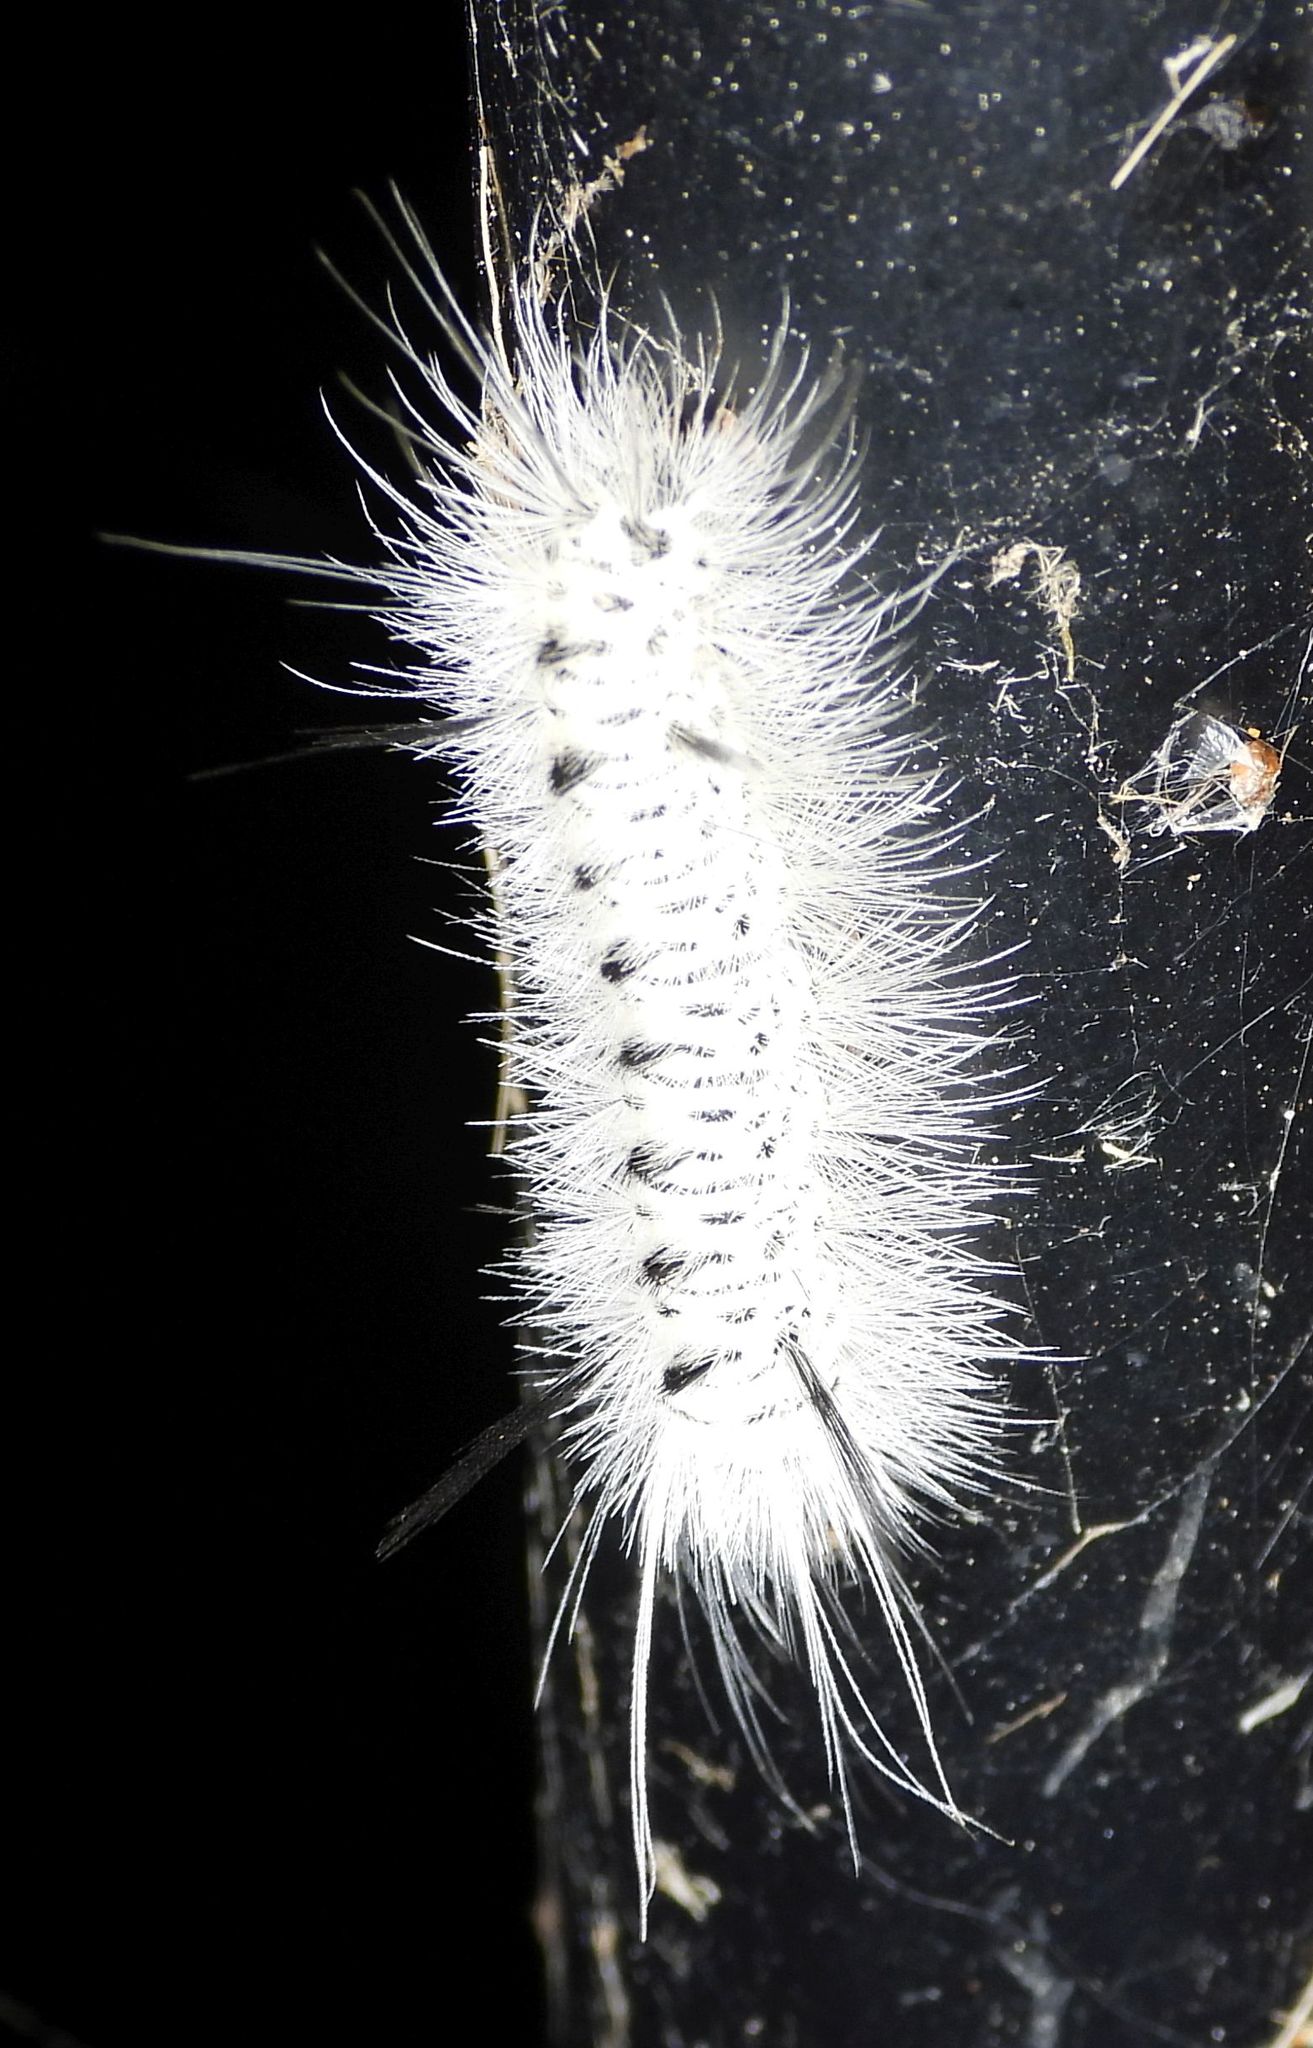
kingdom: Animalia
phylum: Arthropoda
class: Insecta
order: Lepidoptera
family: Erebidae
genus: Lophocampa
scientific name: Lophocampa caryae
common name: Hickory tussock moth
